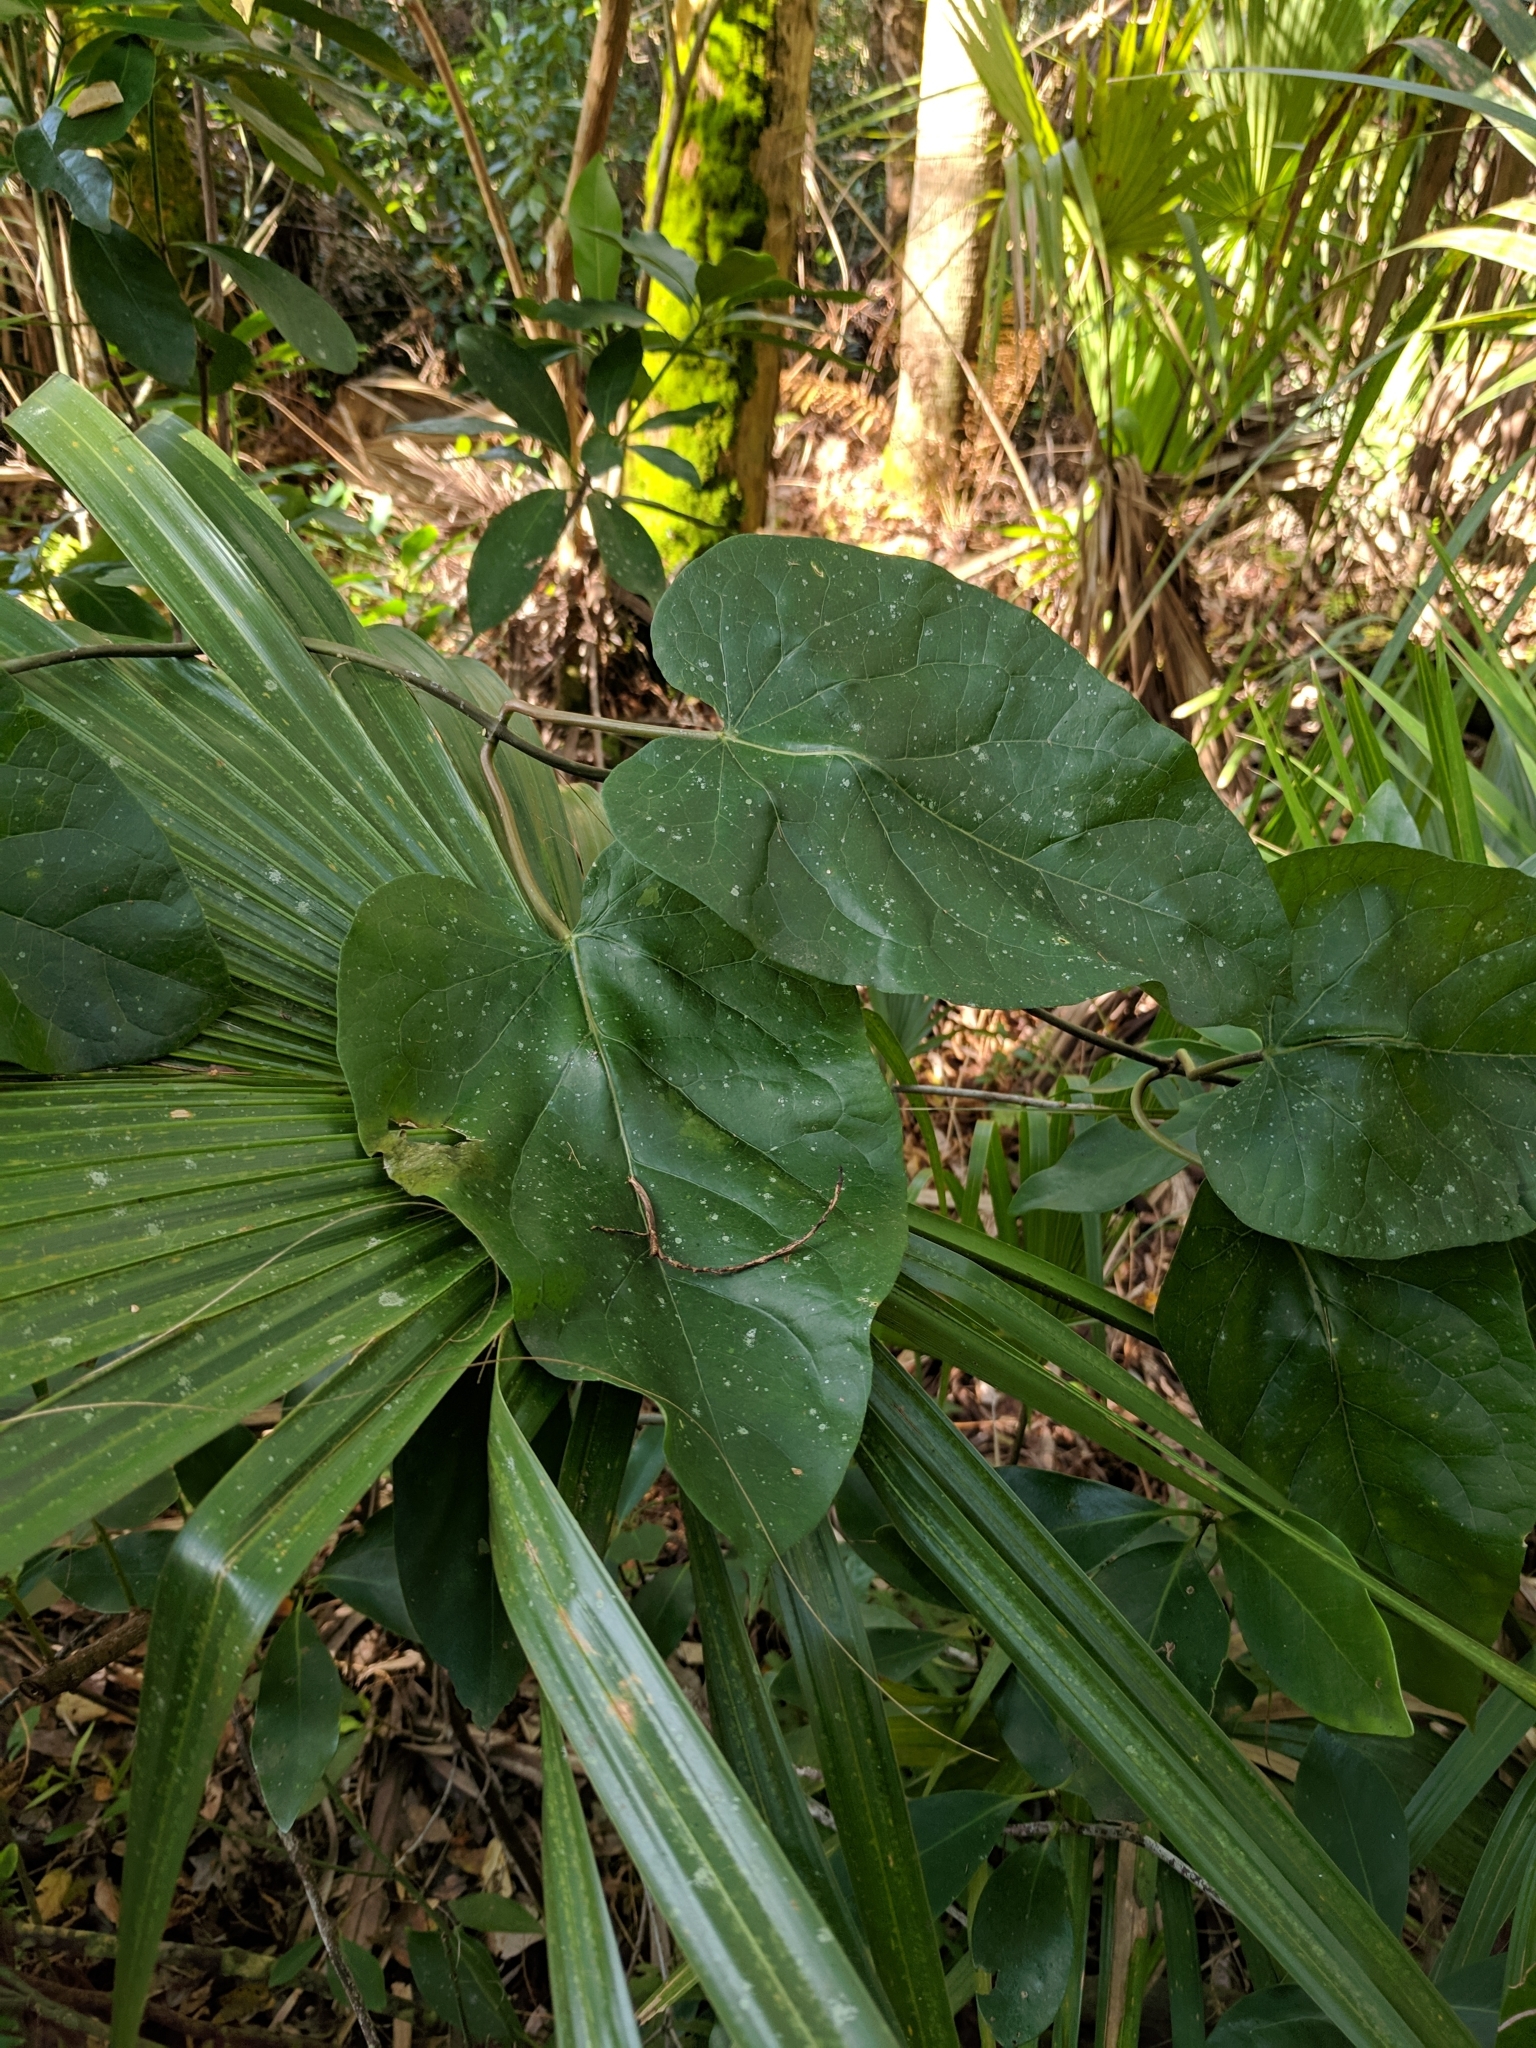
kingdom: Plantae
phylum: Tracheophyta
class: Magnoliopsida
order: Gentianales
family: Apocynaceae
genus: Gonolobus
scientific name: Gonolobus suberosus
